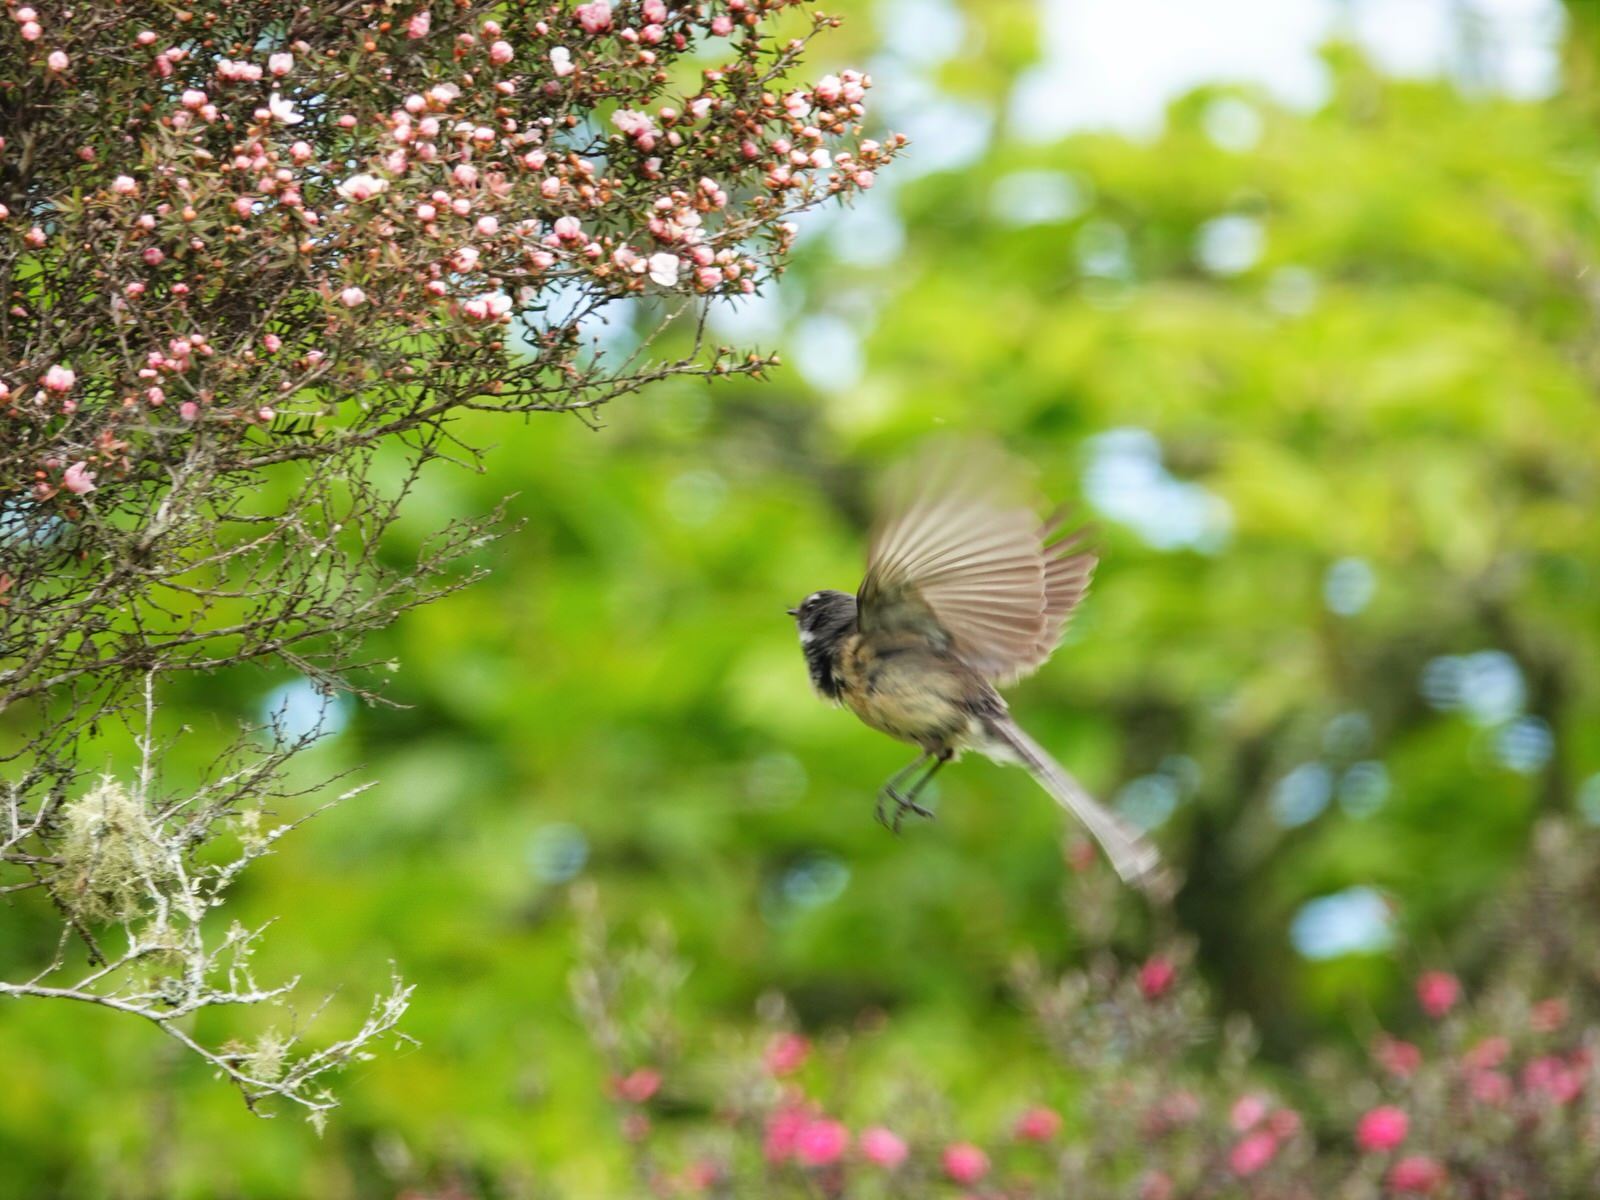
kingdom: Animalia
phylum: Chordata
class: Aves
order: Passeriformes
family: Rhipiduridae
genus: Rhipidura
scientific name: Rhipidura fuliginosa
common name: New zealand fantail
